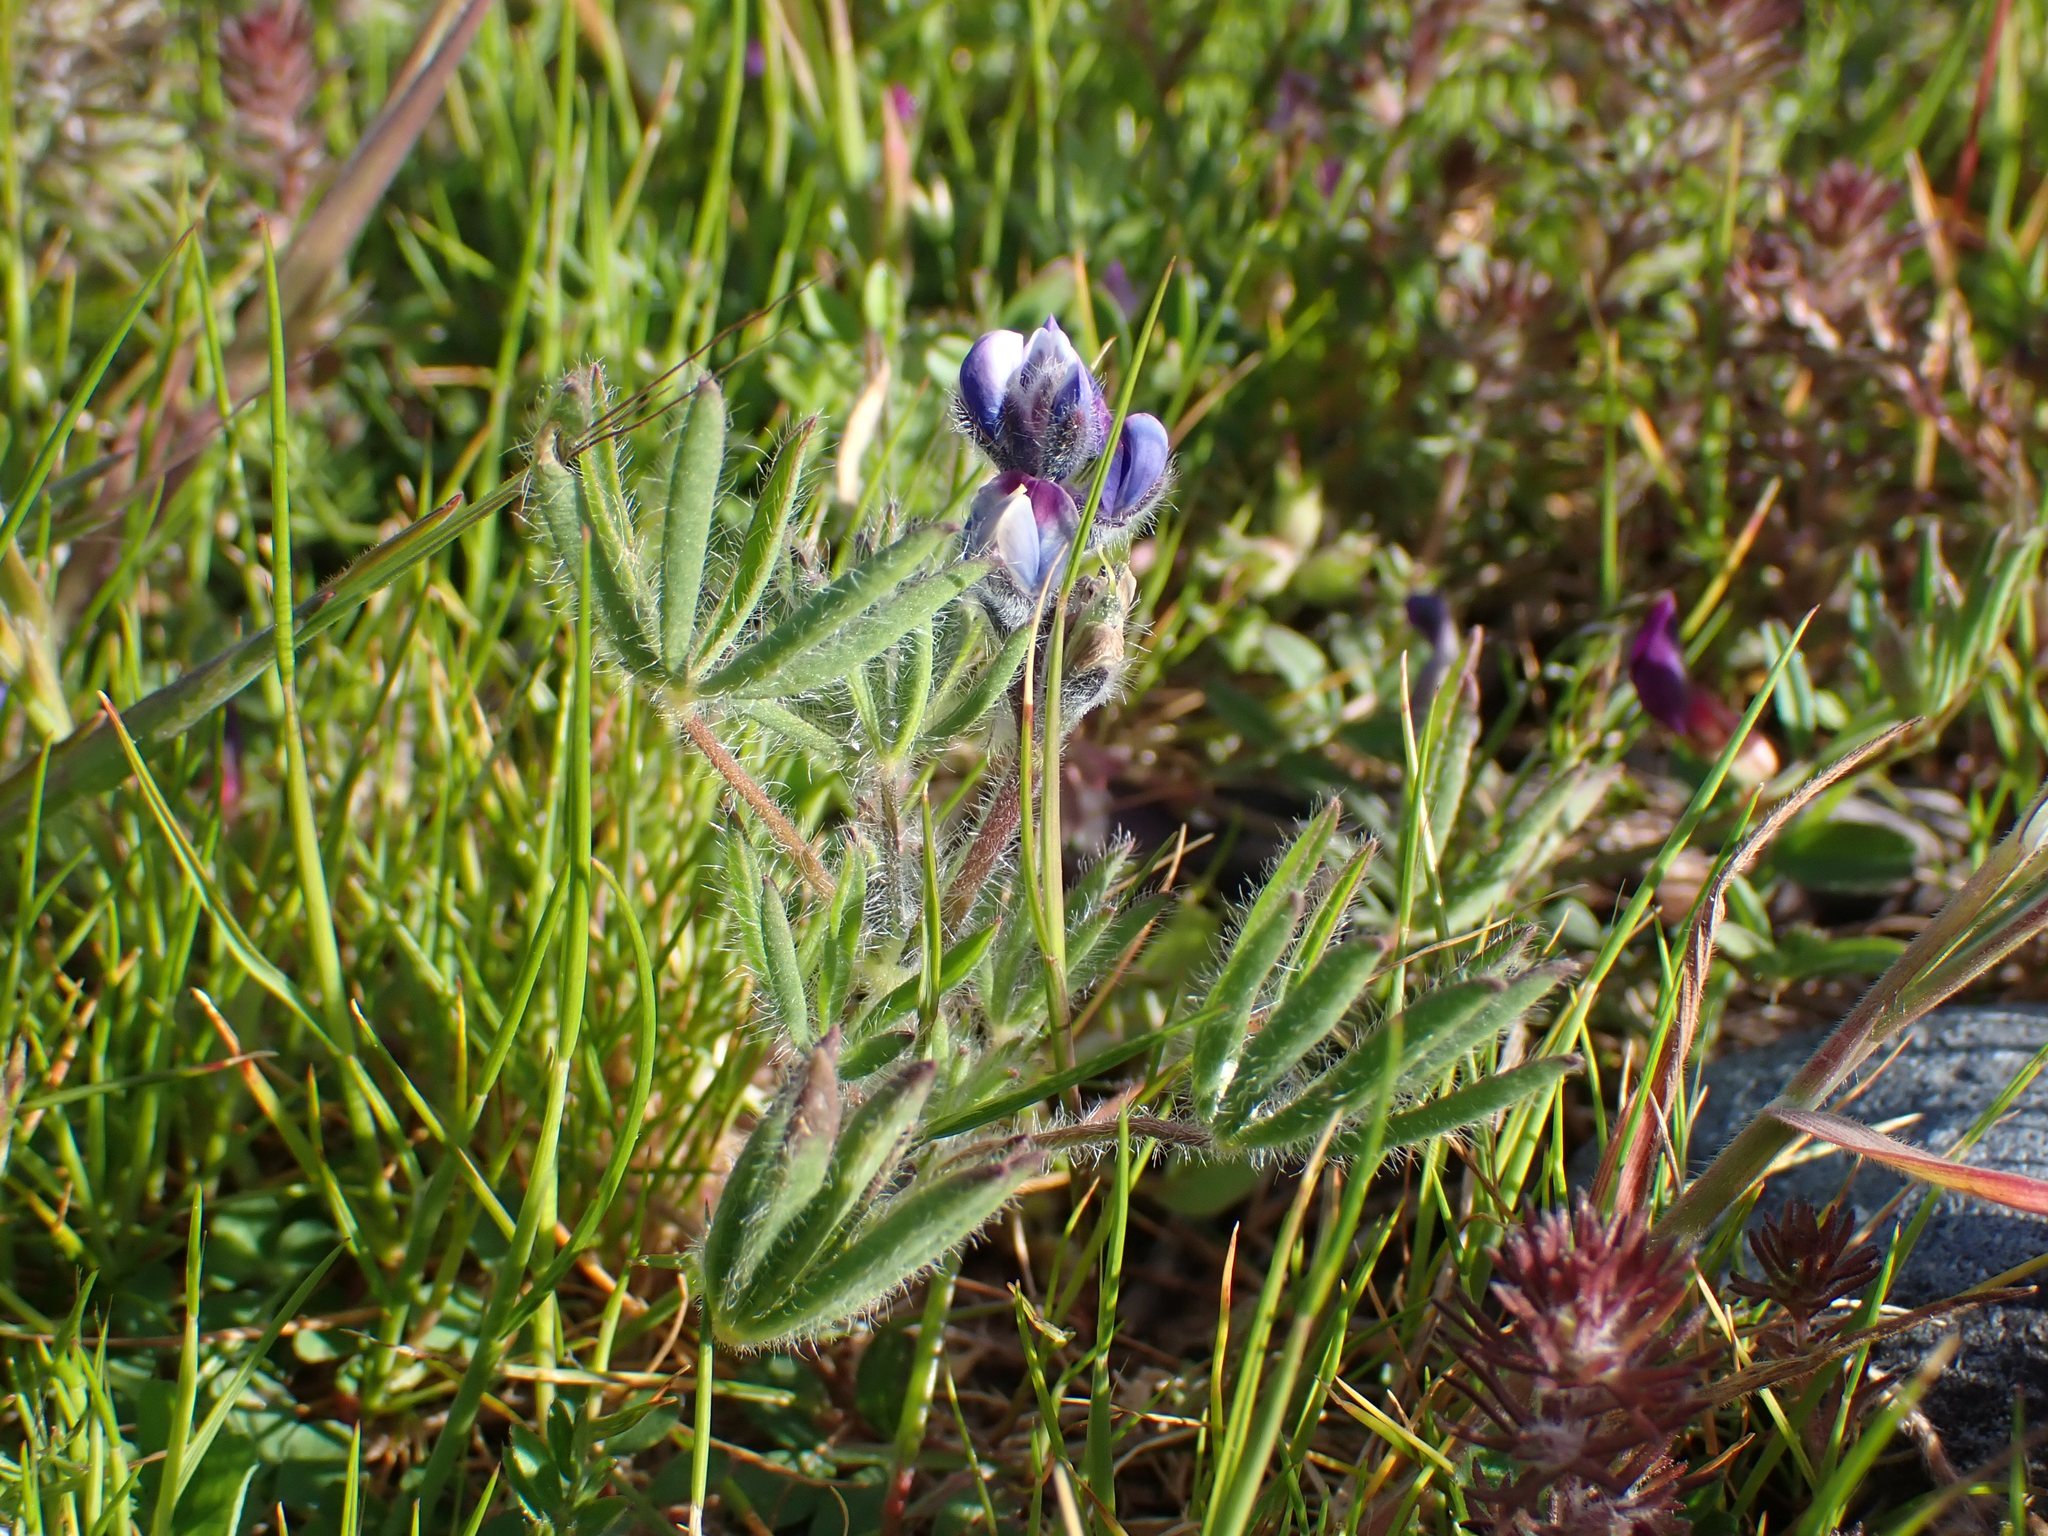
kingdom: Plantae
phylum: Tracheophyta
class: Magnoliopsida
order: Fabales
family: Fabaceae
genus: Lupinus
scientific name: Lupinus bicolor
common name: Miniature lupine
